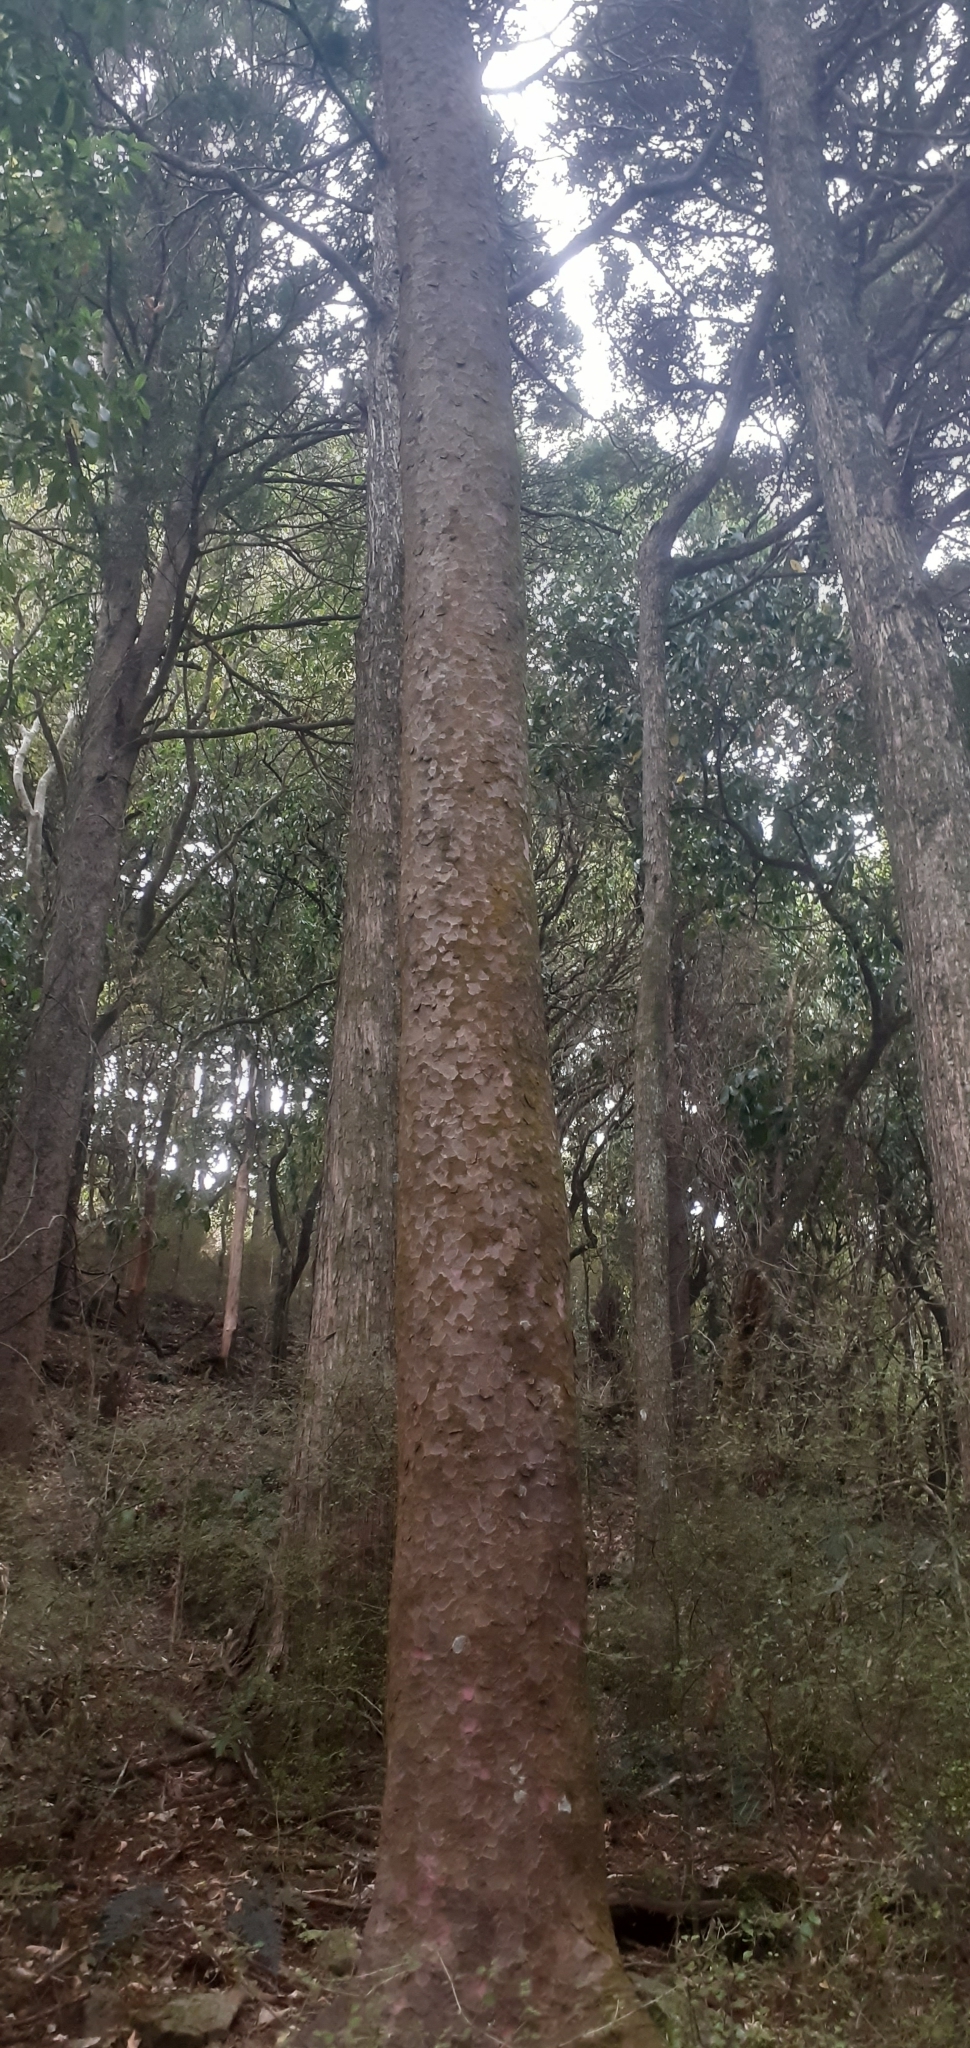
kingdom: Plantae
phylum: Tracheophyta
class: Pinopsida
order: Pinales
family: Podocarpaceae
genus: Prumnopitys
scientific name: Prumnopitys taxifolia
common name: Matai
